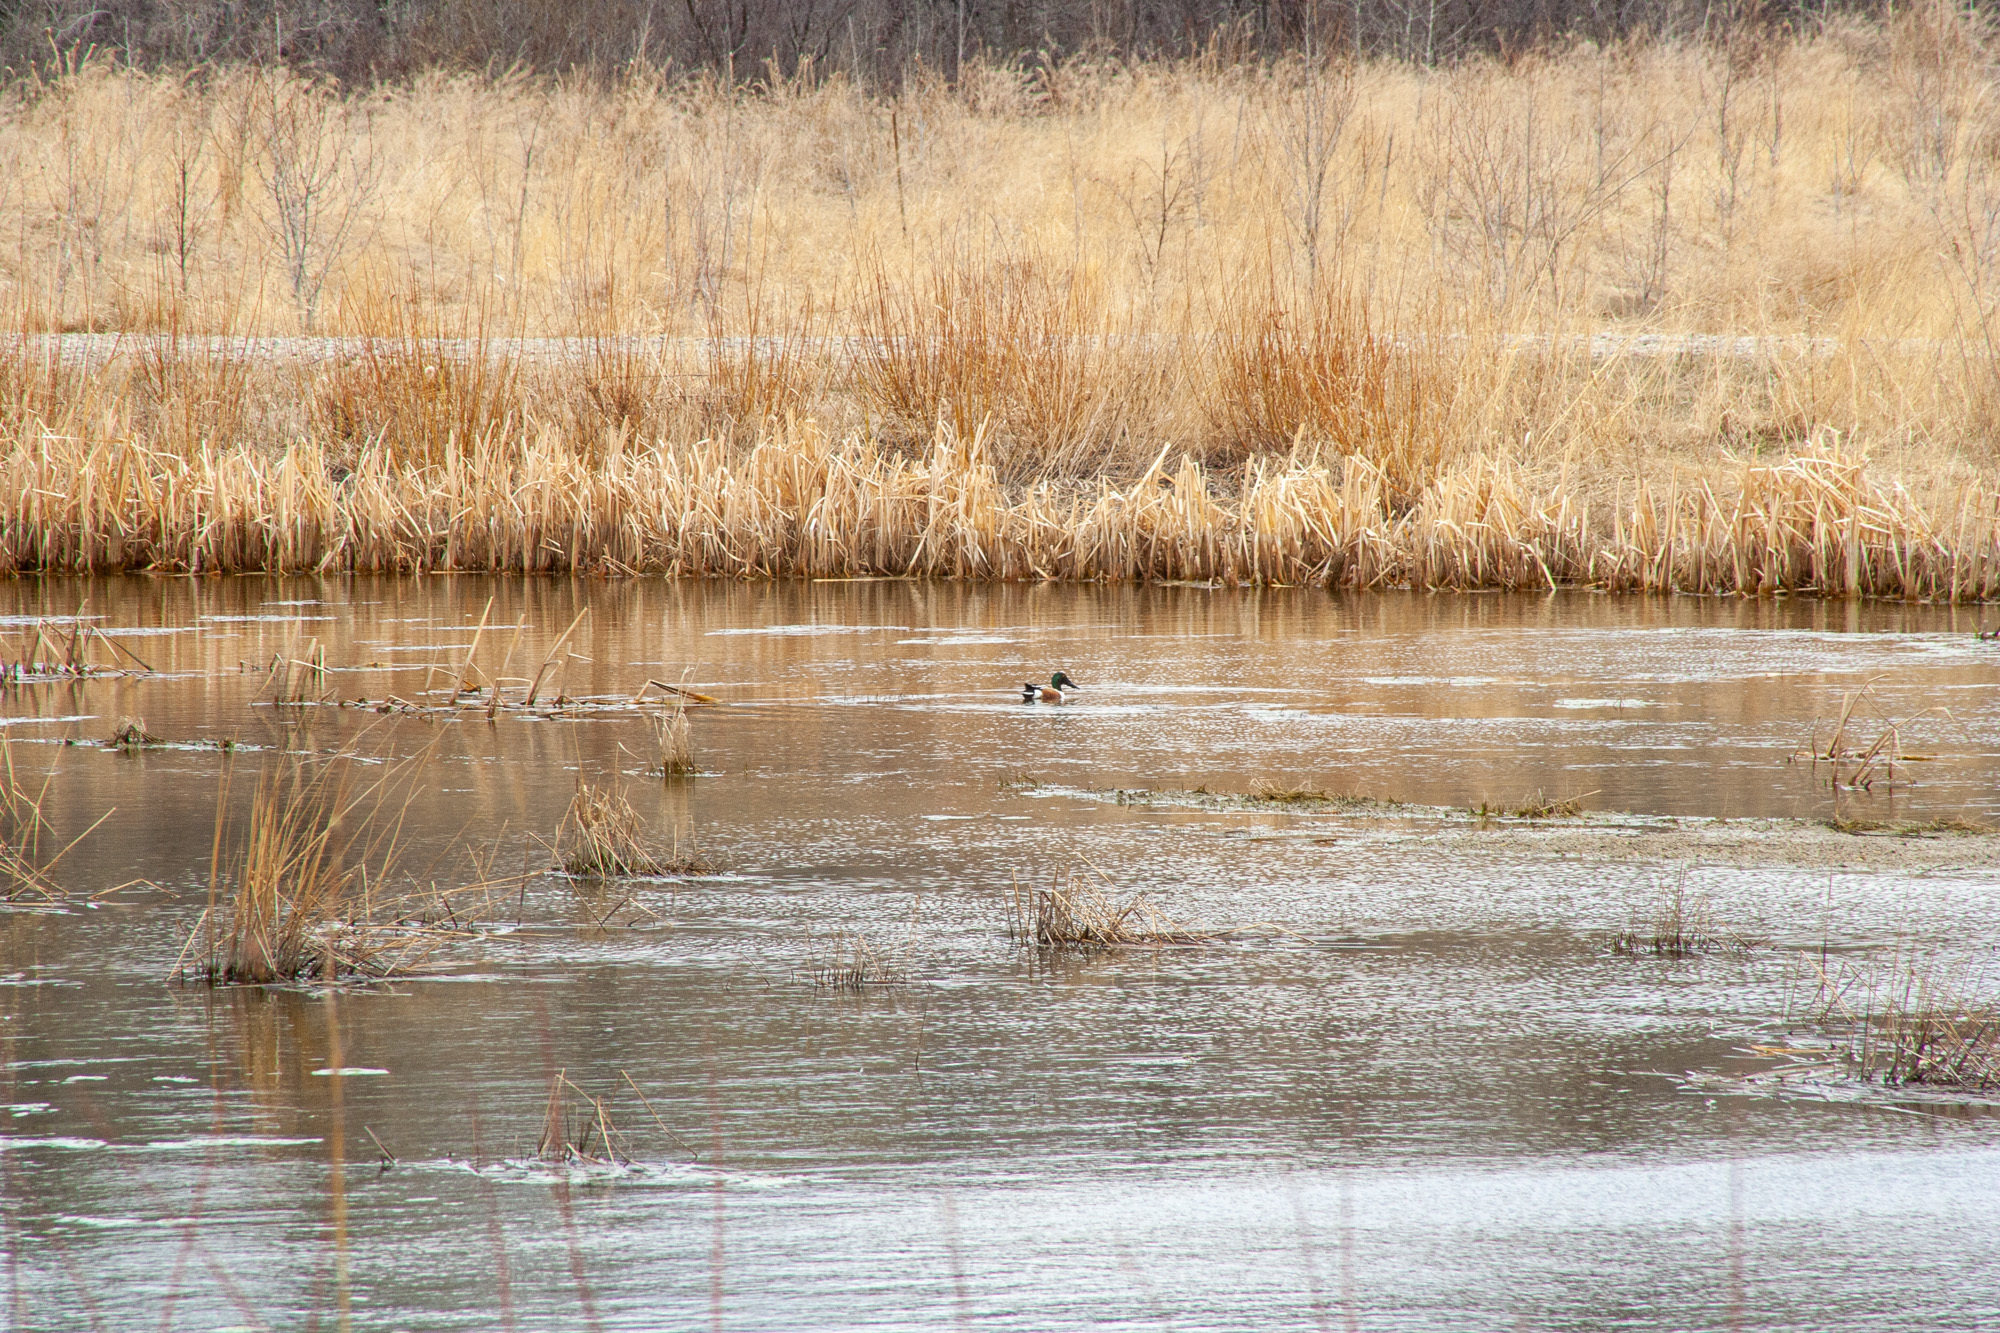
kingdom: Animalia
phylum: Chordata
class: Aves
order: Anseriformes
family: Anatidae
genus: Spatula
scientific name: Spatula clypeata
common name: Northern shoveler
